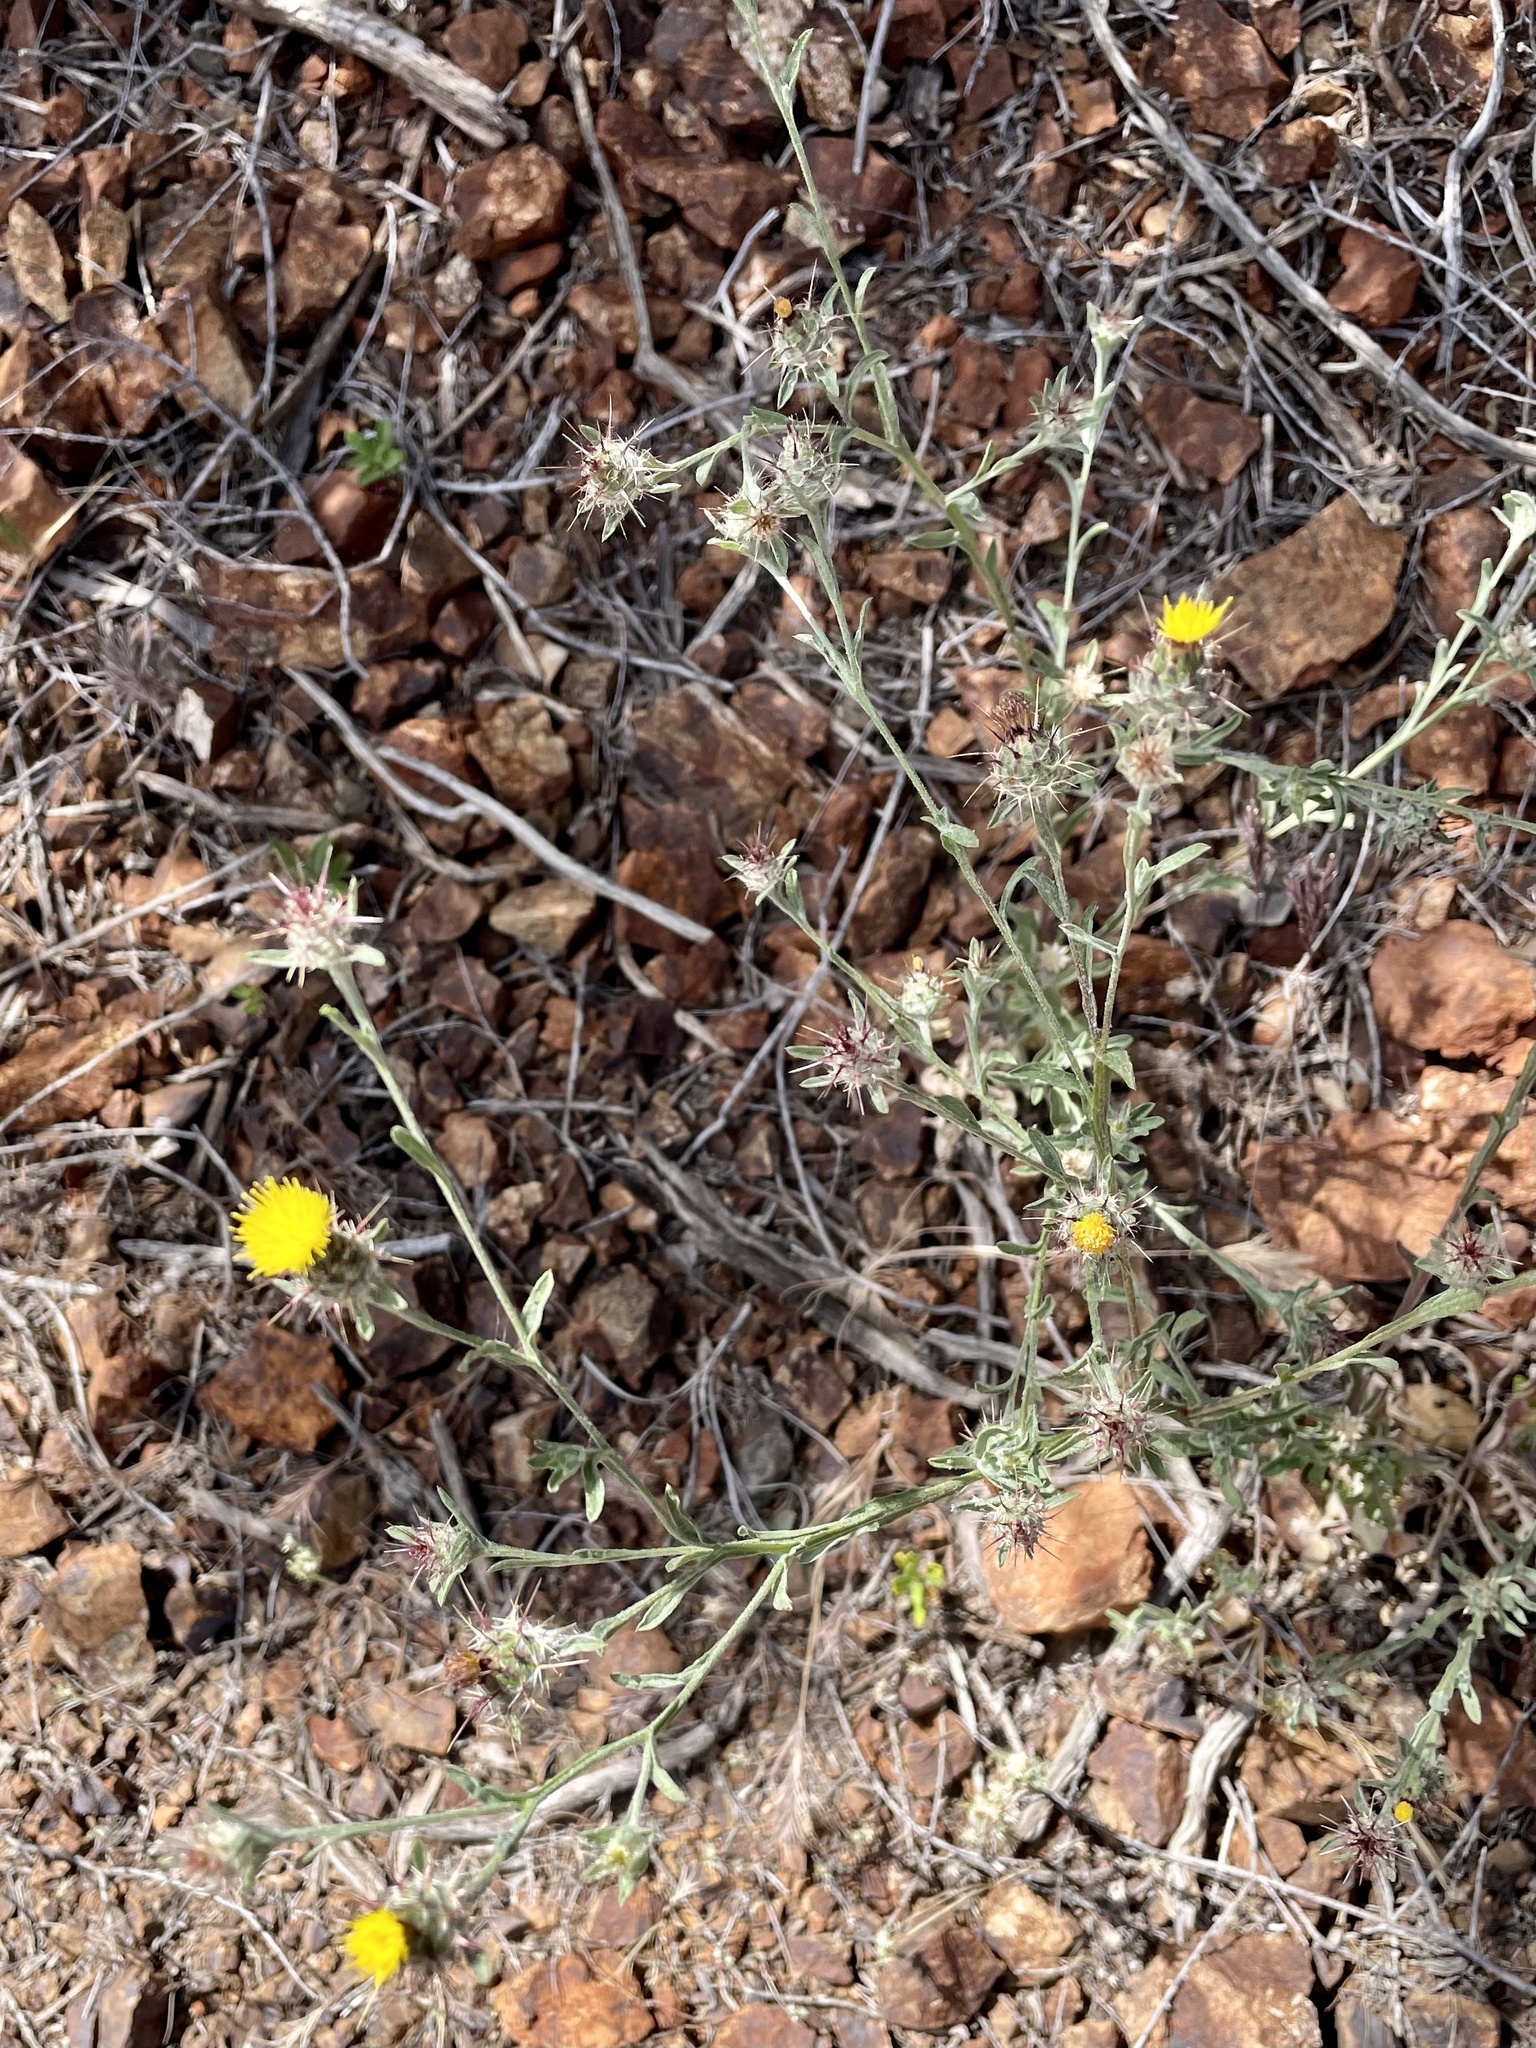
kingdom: Plantae
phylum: Tracheophyta
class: Magnoliopsida
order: Asterales
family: Asteraceae
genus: Centaurea
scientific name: Centaurea melitensis
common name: Maltese star-thistle
